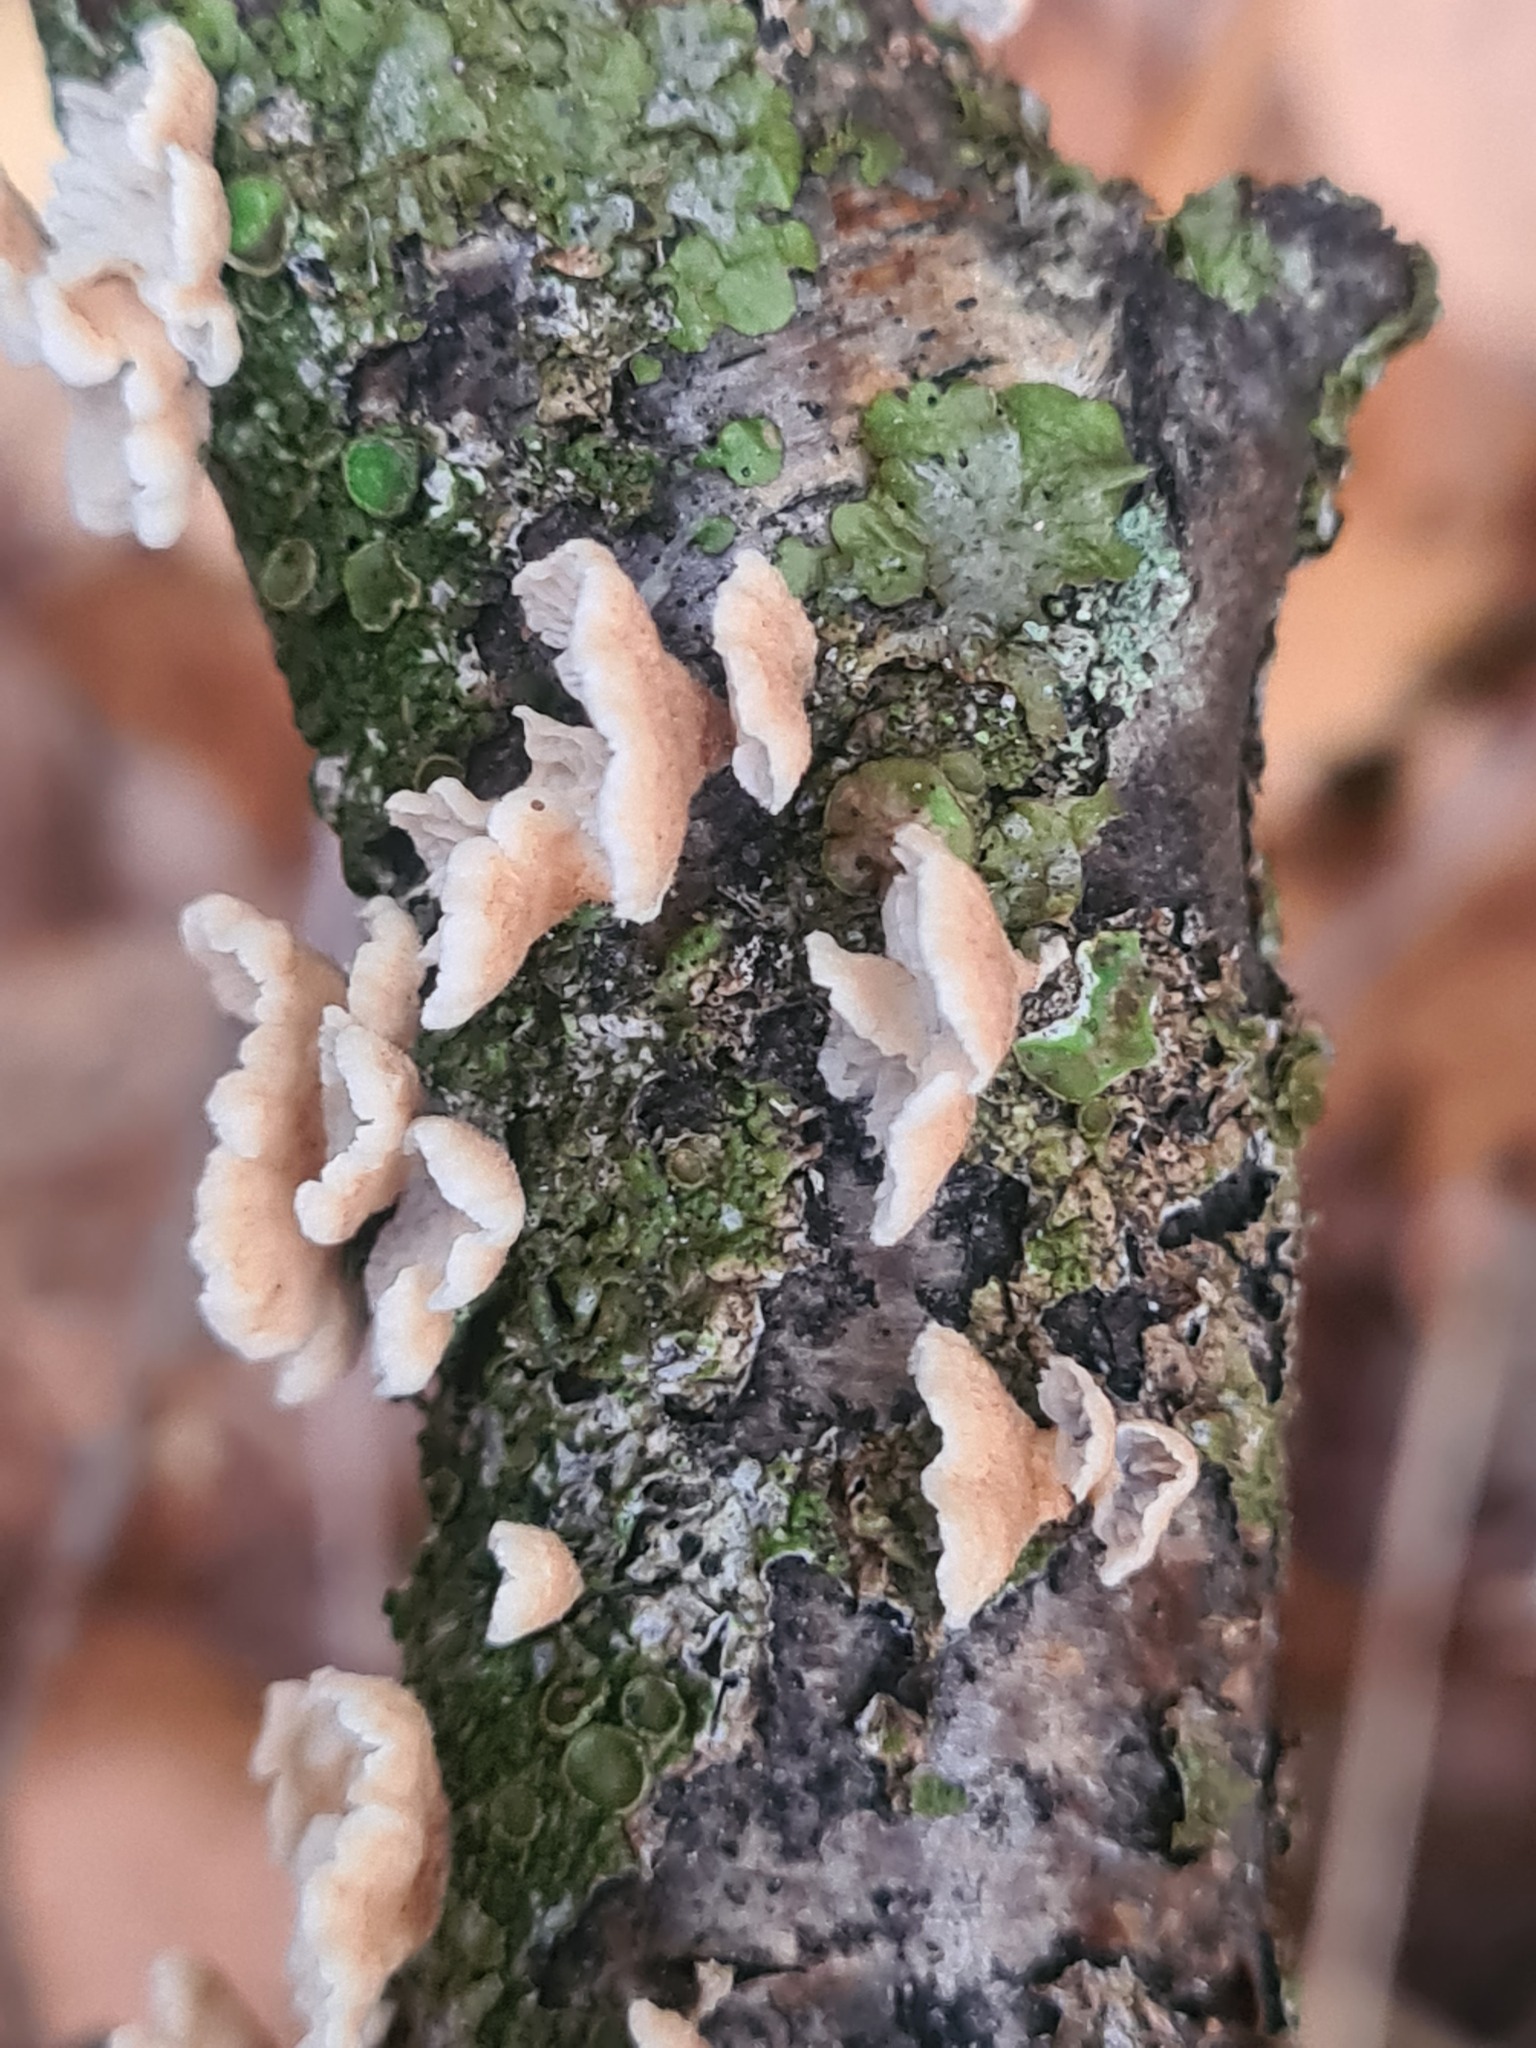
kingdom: Fungi
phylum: Basidiomycota
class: Agaricomycetes
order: Amylocorticiales
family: Amylocorticiaceae
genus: Plicaturopsis
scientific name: Plicaturopsis crispa
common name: Crimped gill
